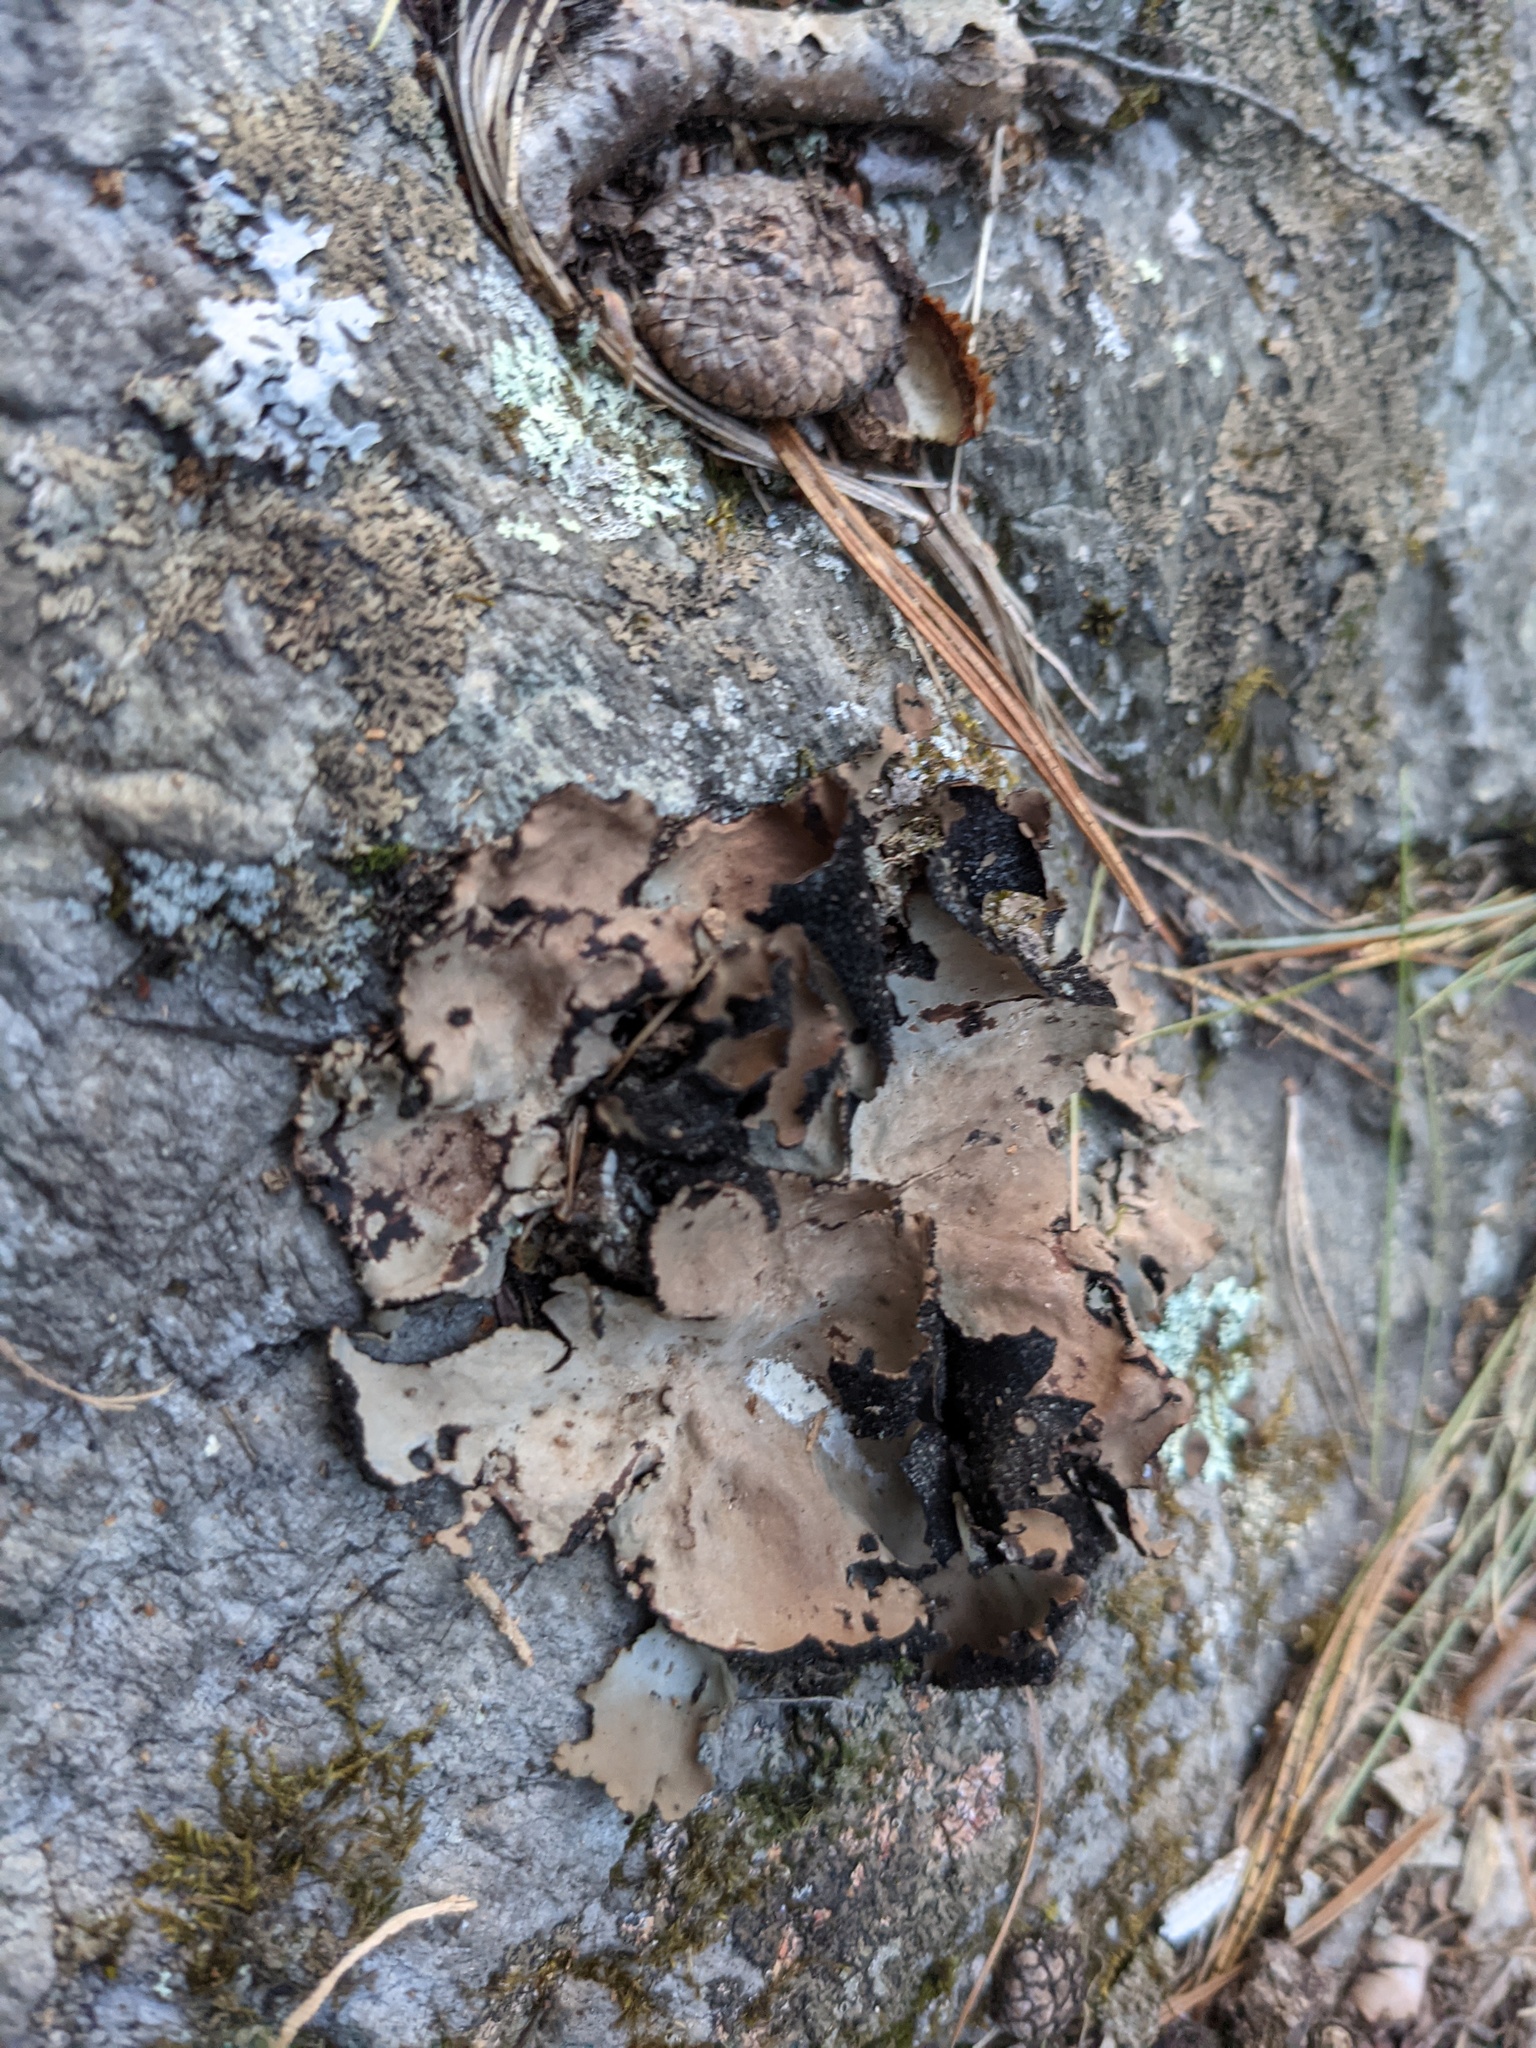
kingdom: Fungi
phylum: Ascomycota
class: Lecanoromycetes
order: Umbilicariales
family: Umbilicariaceae
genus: Umbilicaria
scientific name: Umbilicaria mammulata
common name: Smooth rock tripe
